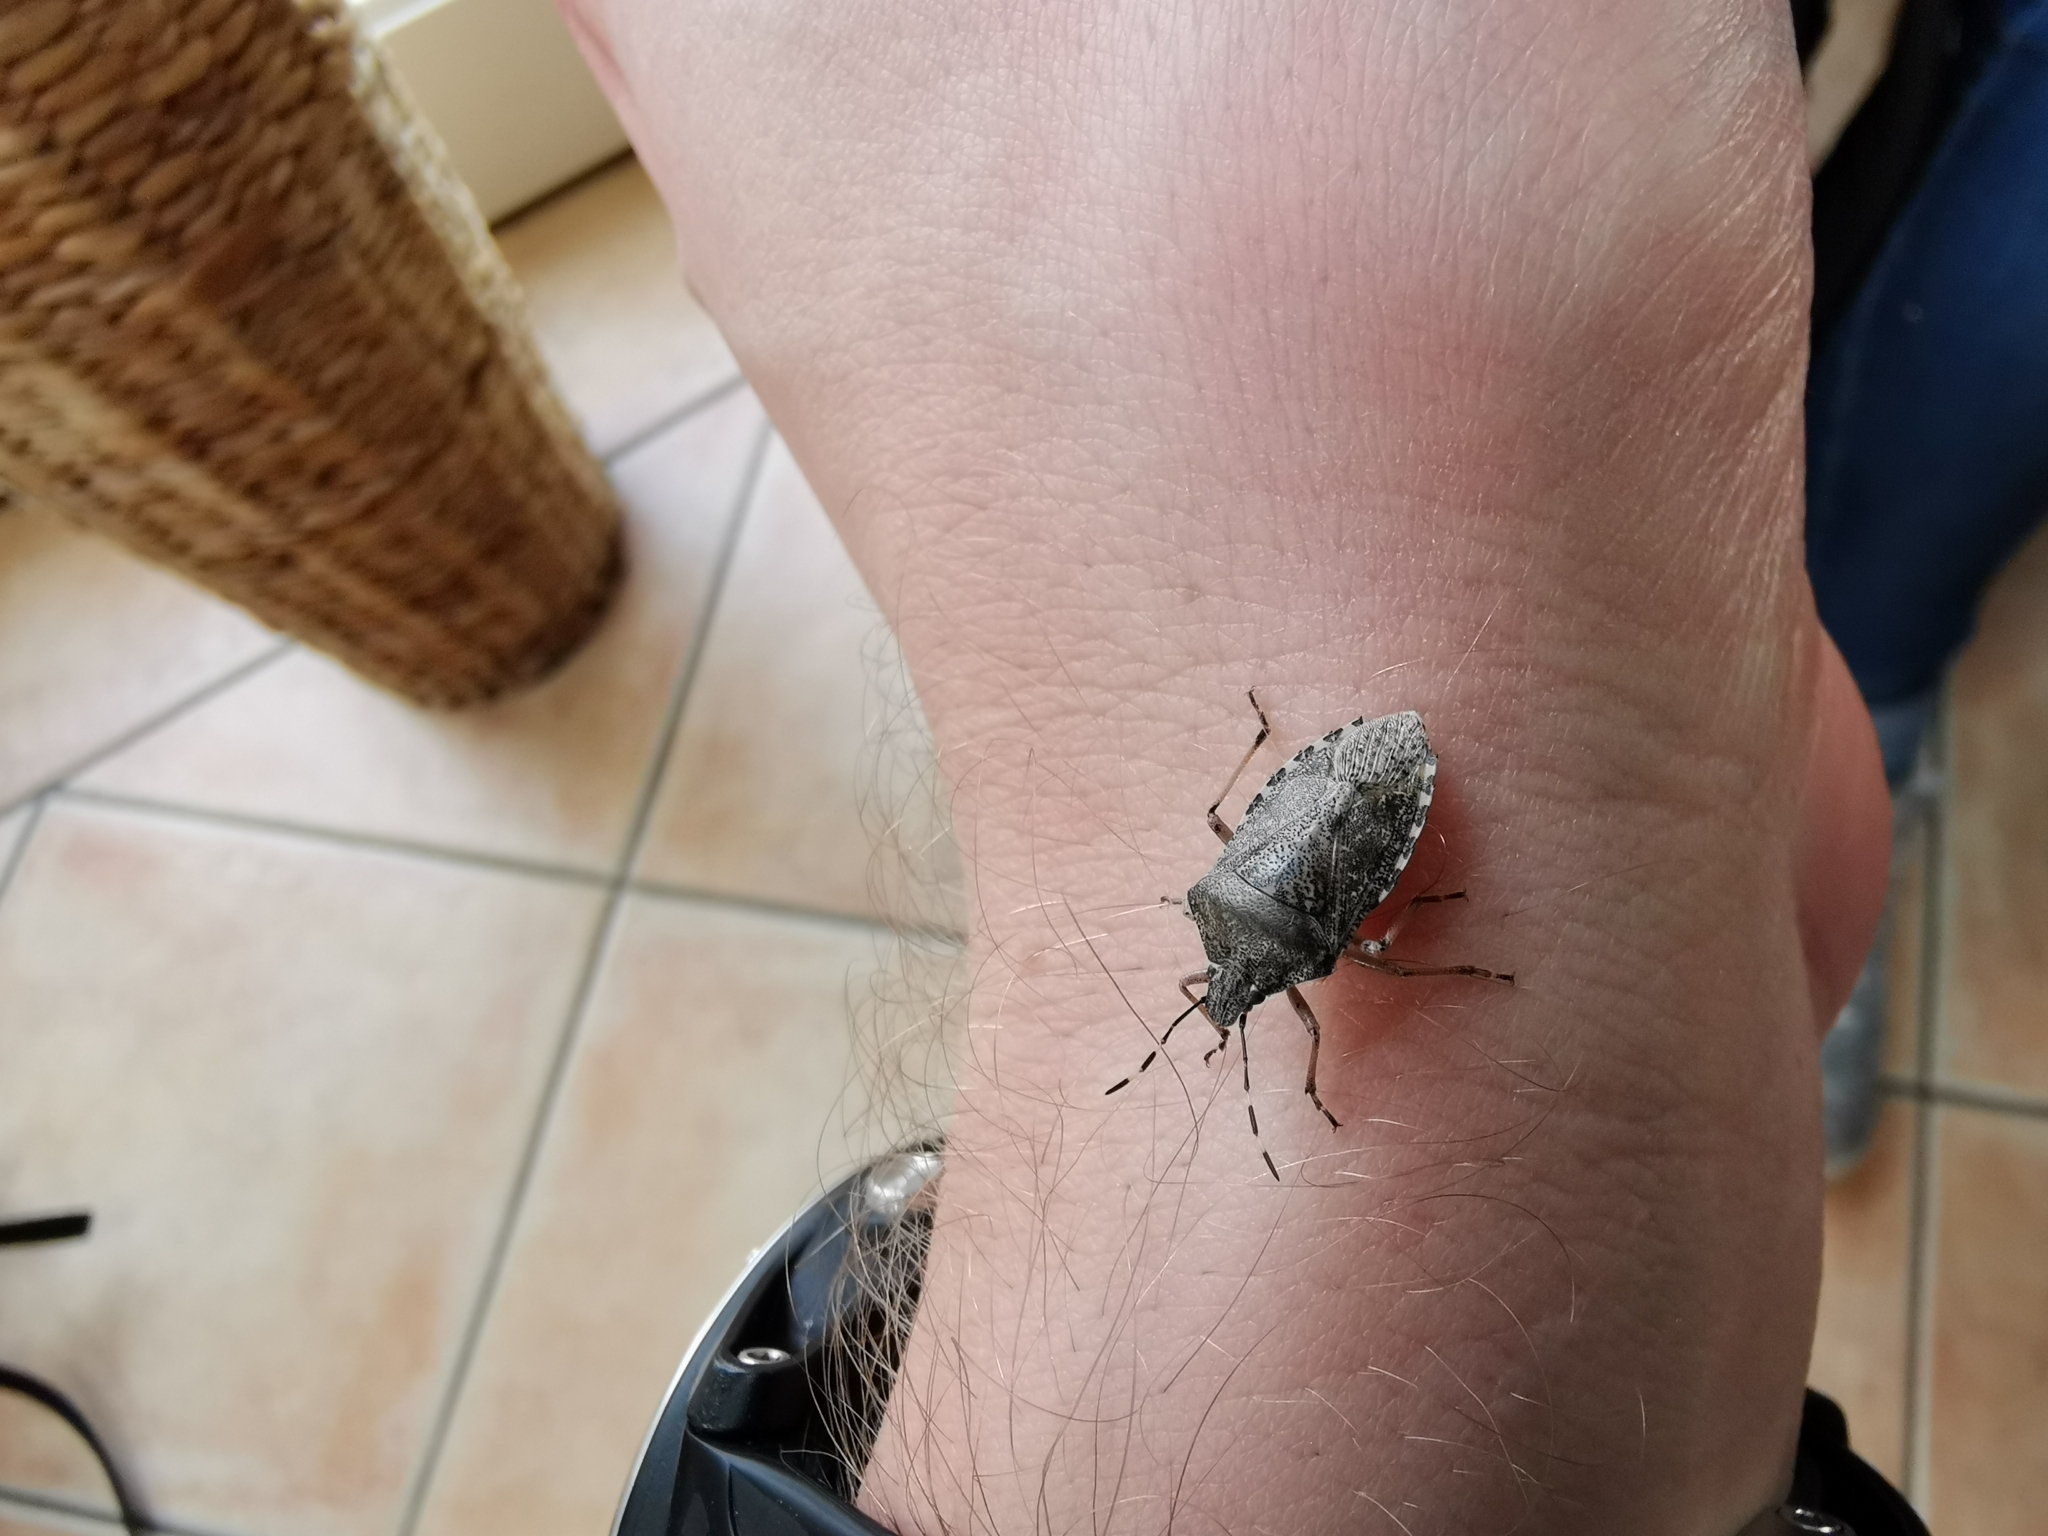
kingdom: Animalia
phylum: Arthropoda
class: Insecta
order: Hemiptera
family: Pentatomidae
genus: Rhaphigaster
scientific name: Rhaphigaster nebulosa
